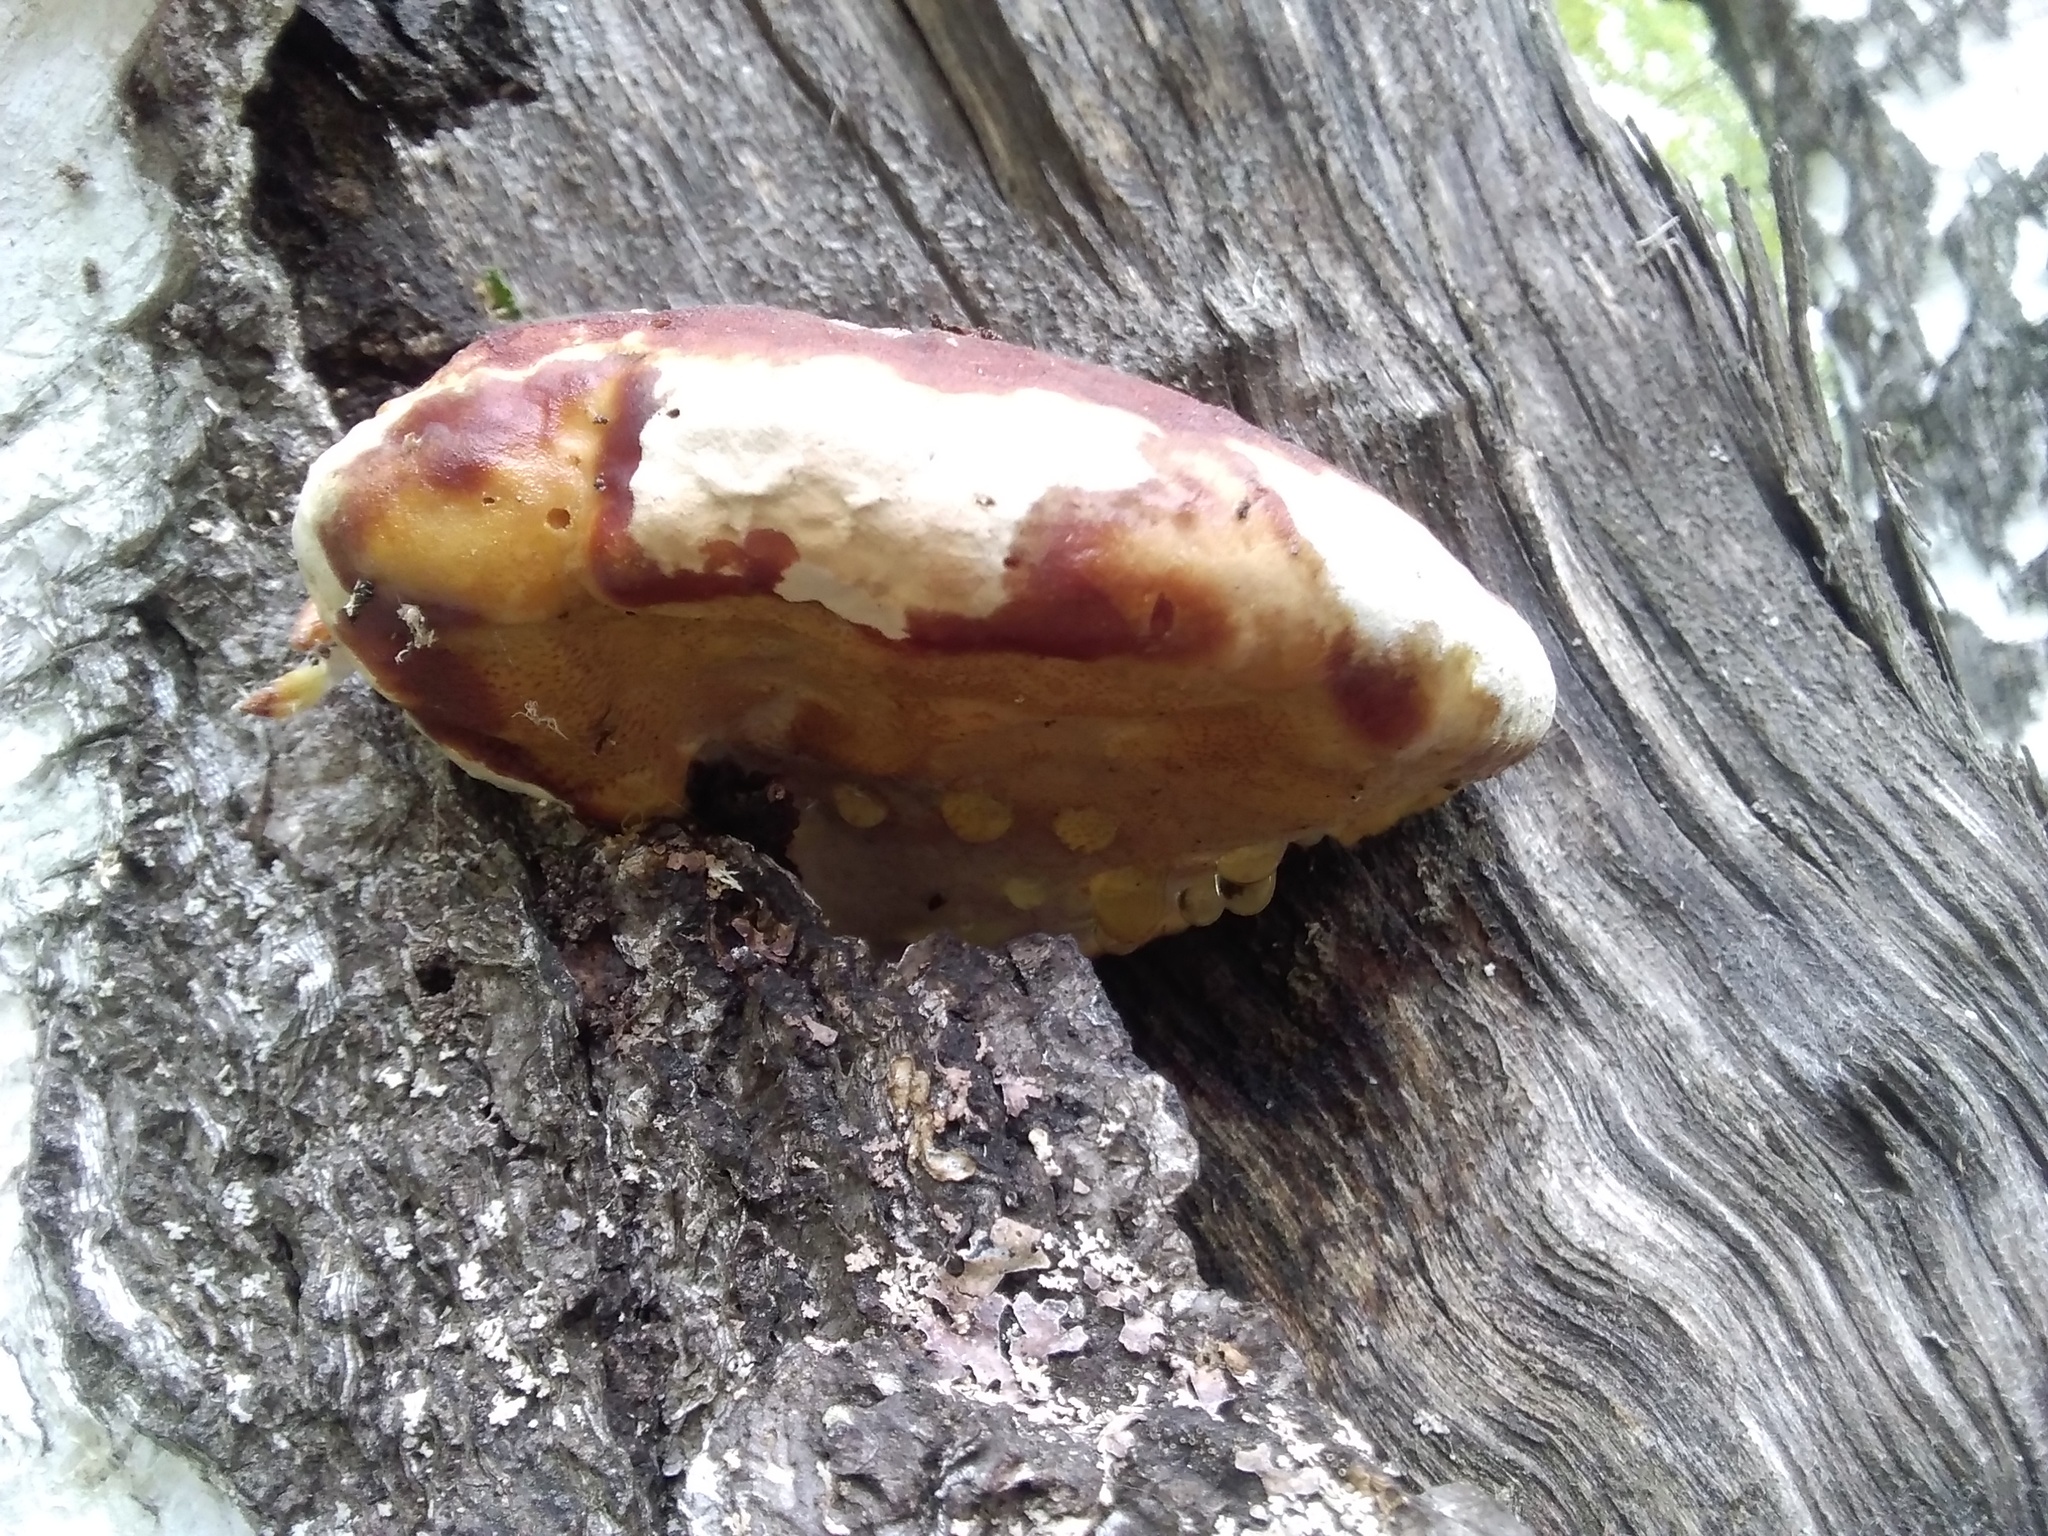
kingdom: Fungi
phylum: Basidiomycota
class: Agaricomycetes
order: Polyporales
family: Fomitopsidaceae
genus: Fomitopsis
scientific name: Fomitopsis pinicola
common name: Red-belted bracket
